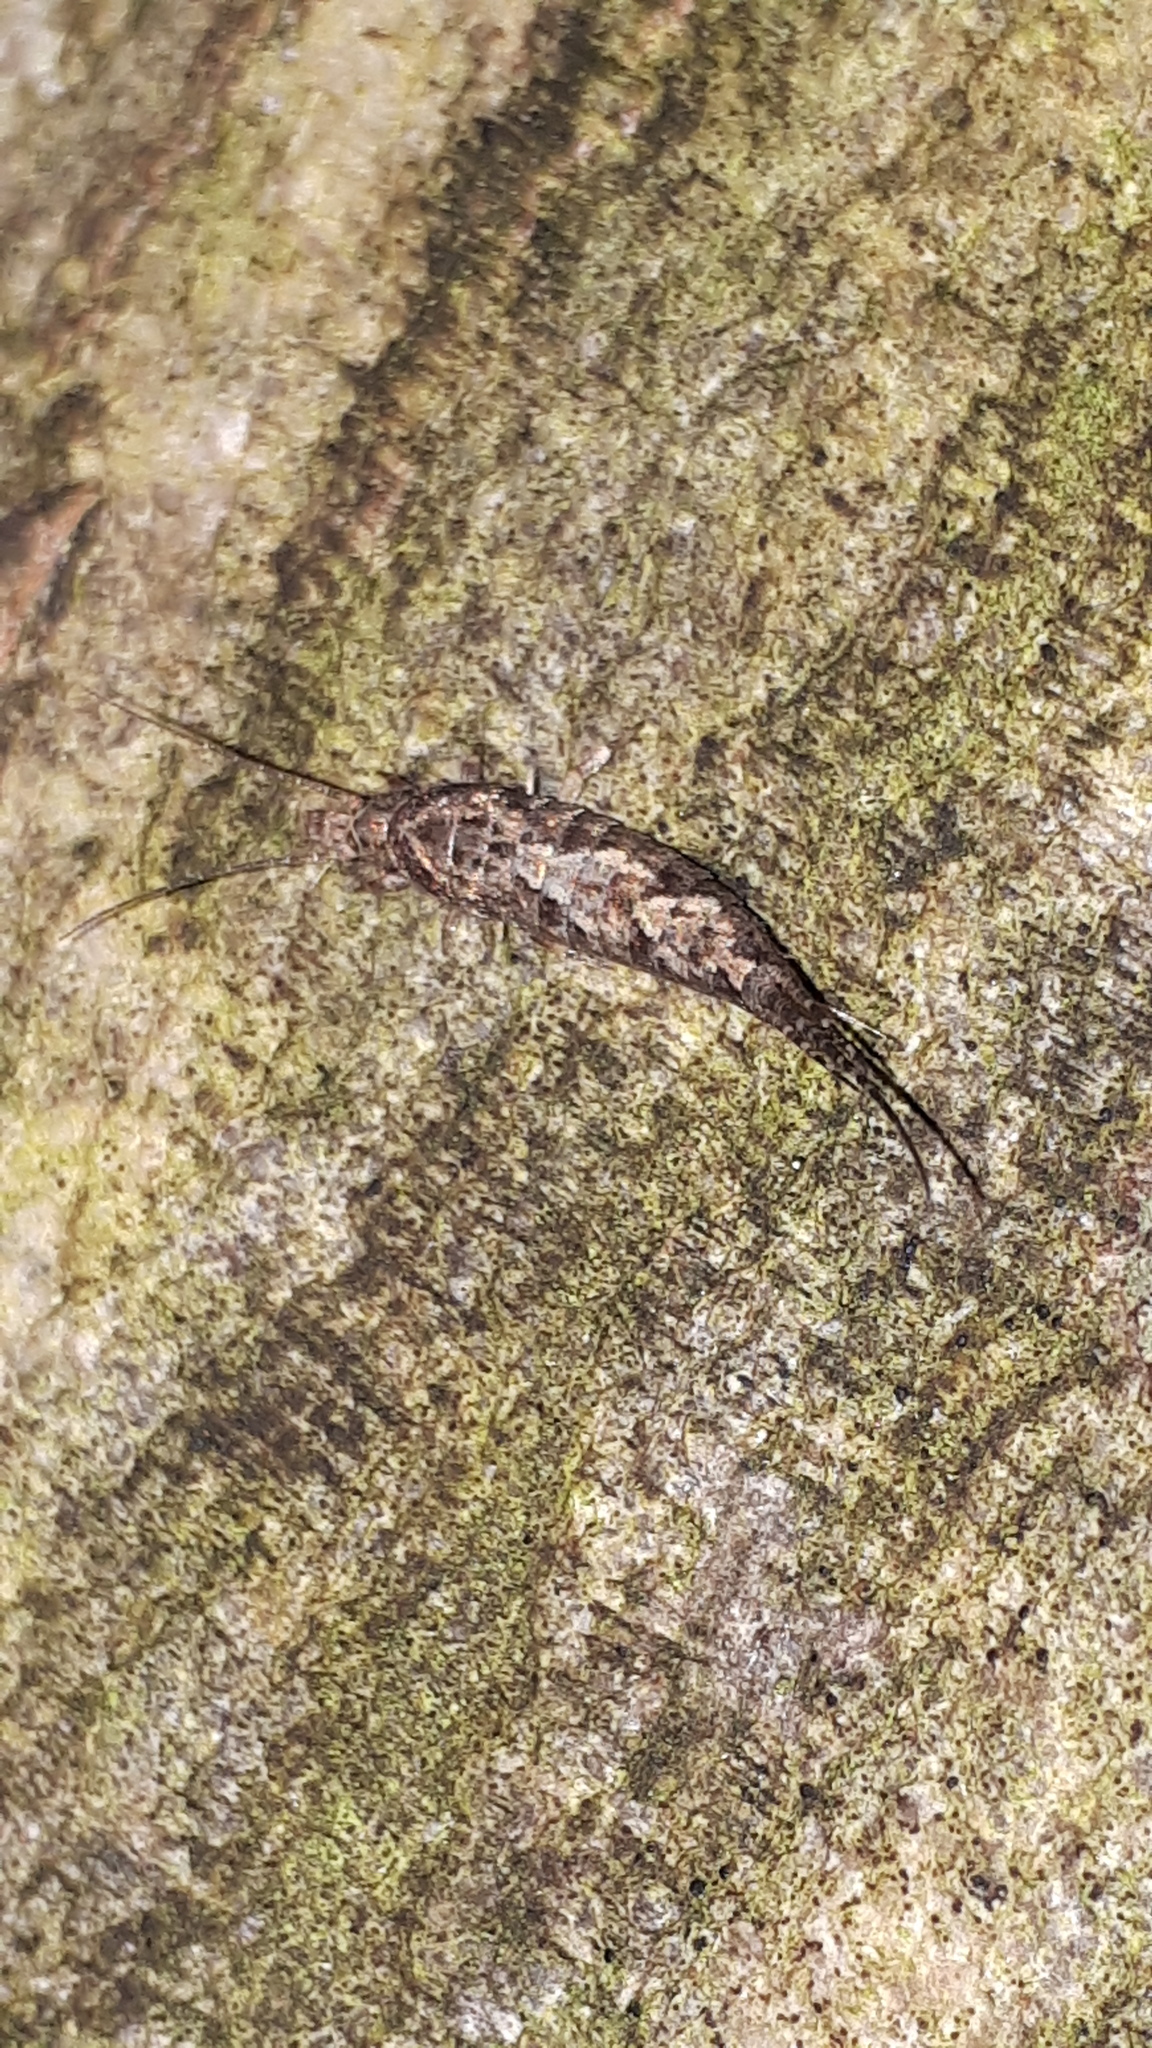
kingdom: Animalia
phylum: Arthropoda
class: Insecta
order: Archaeognatha
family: Machilidae
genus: Lepismachilis
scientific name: Lepismachilis y-signata
